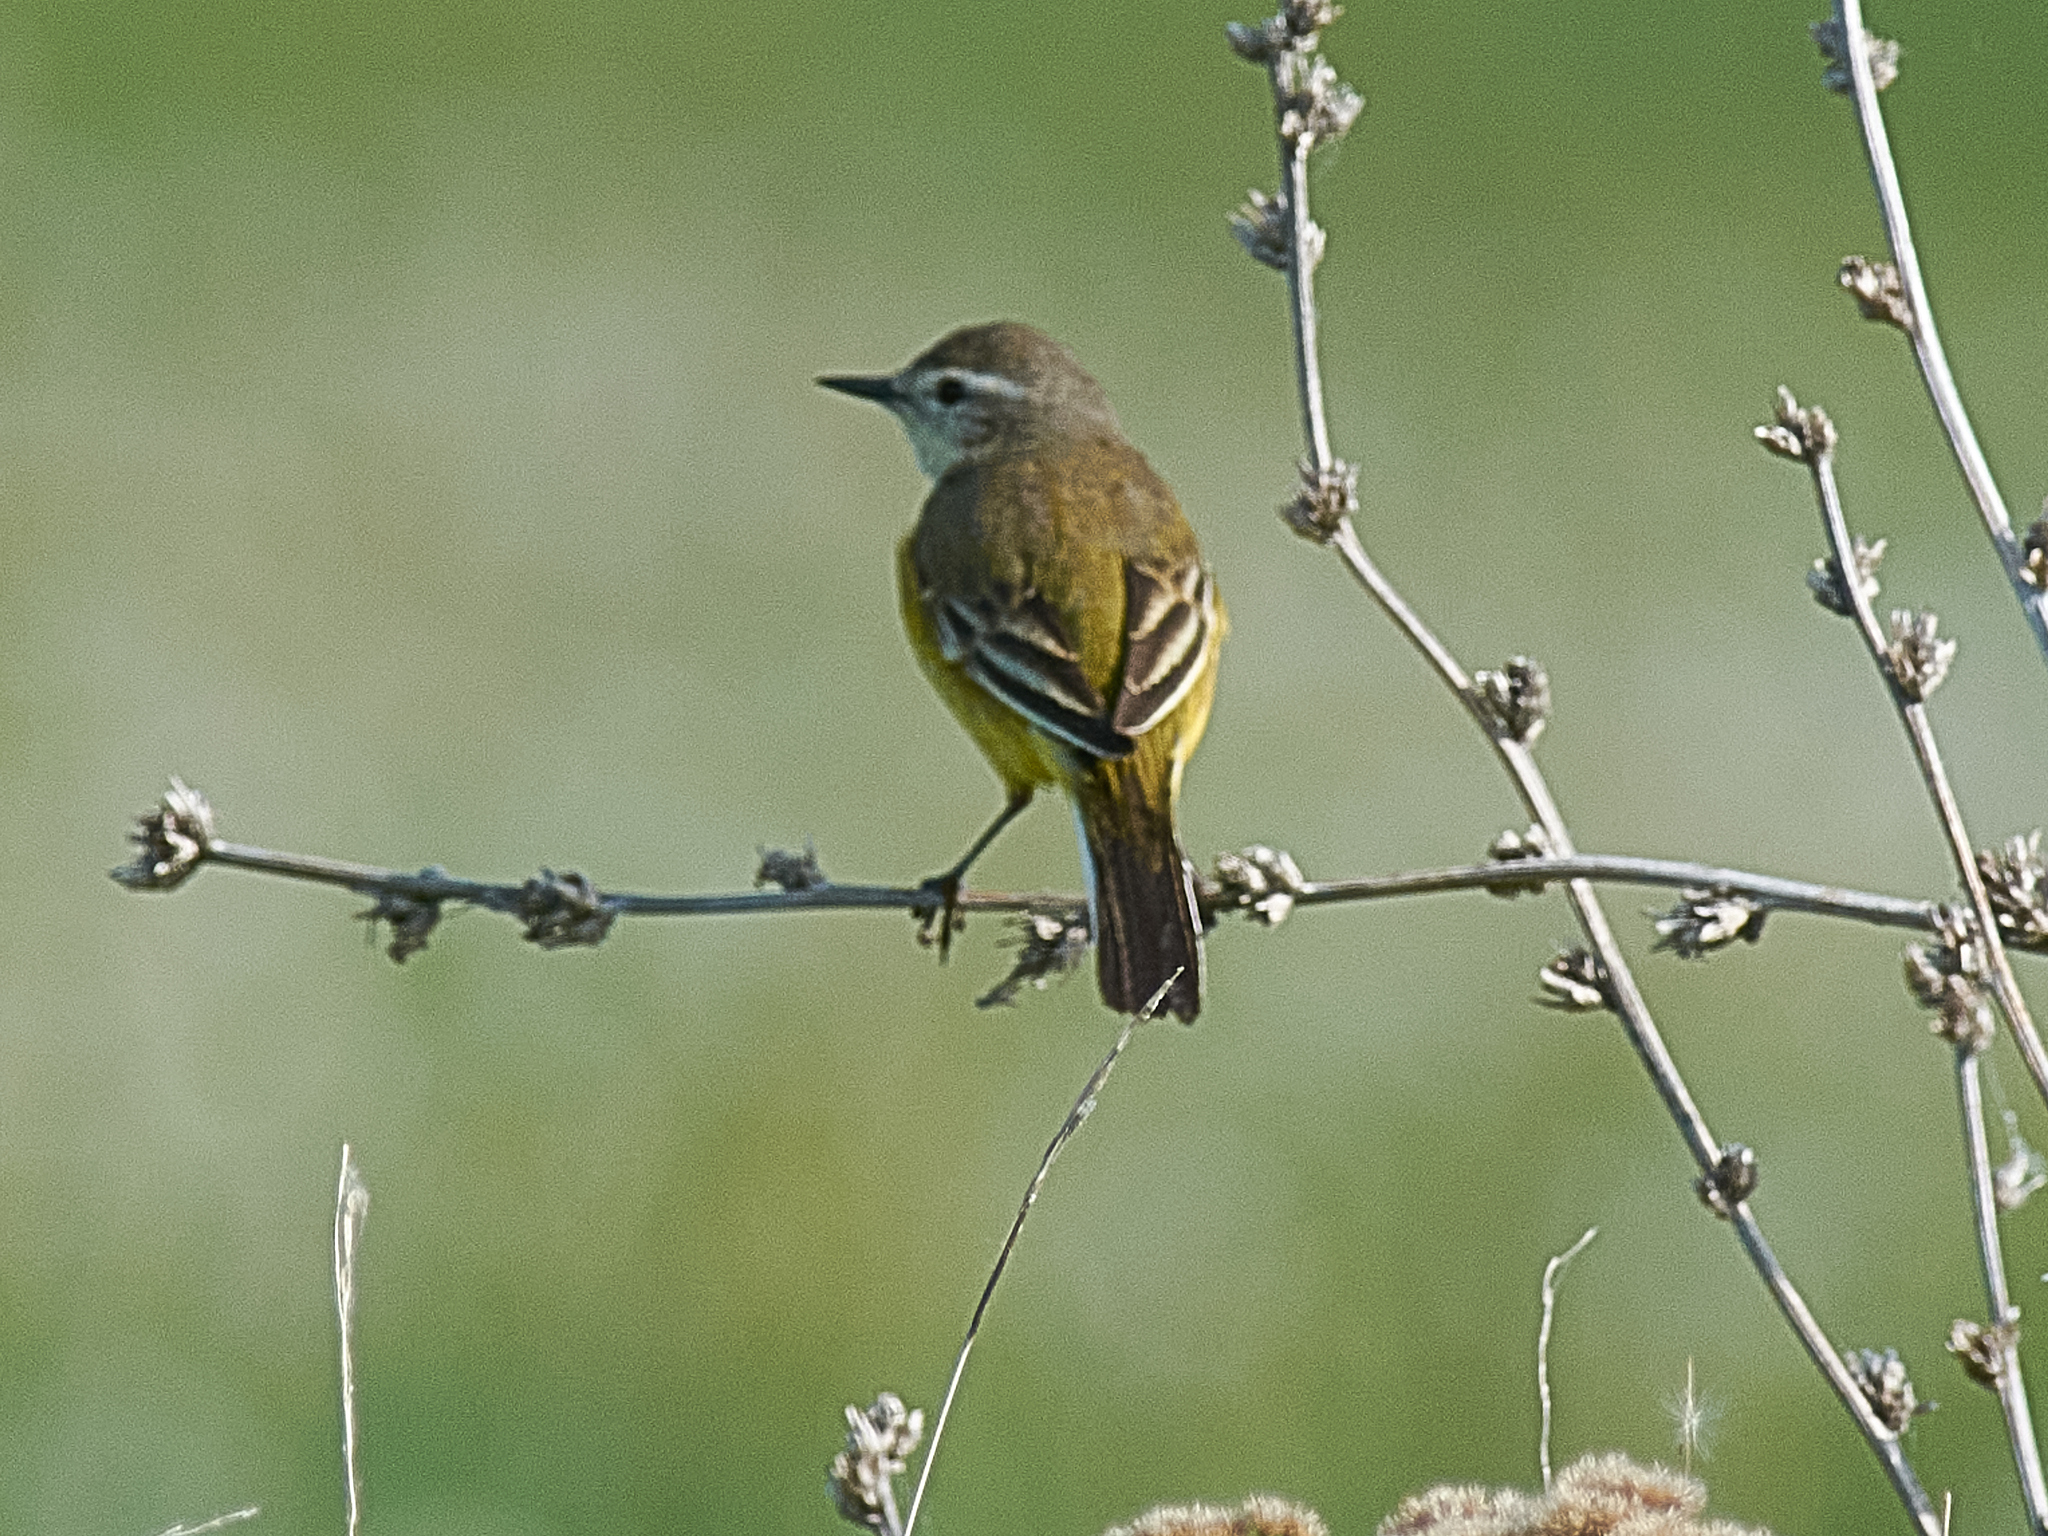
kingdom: Animalia
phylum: Chordata
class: Aves
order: Passeriformes
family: Motacillidae
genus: Motacilla
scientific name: Motacilla flava
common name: Western yellow wagtail
